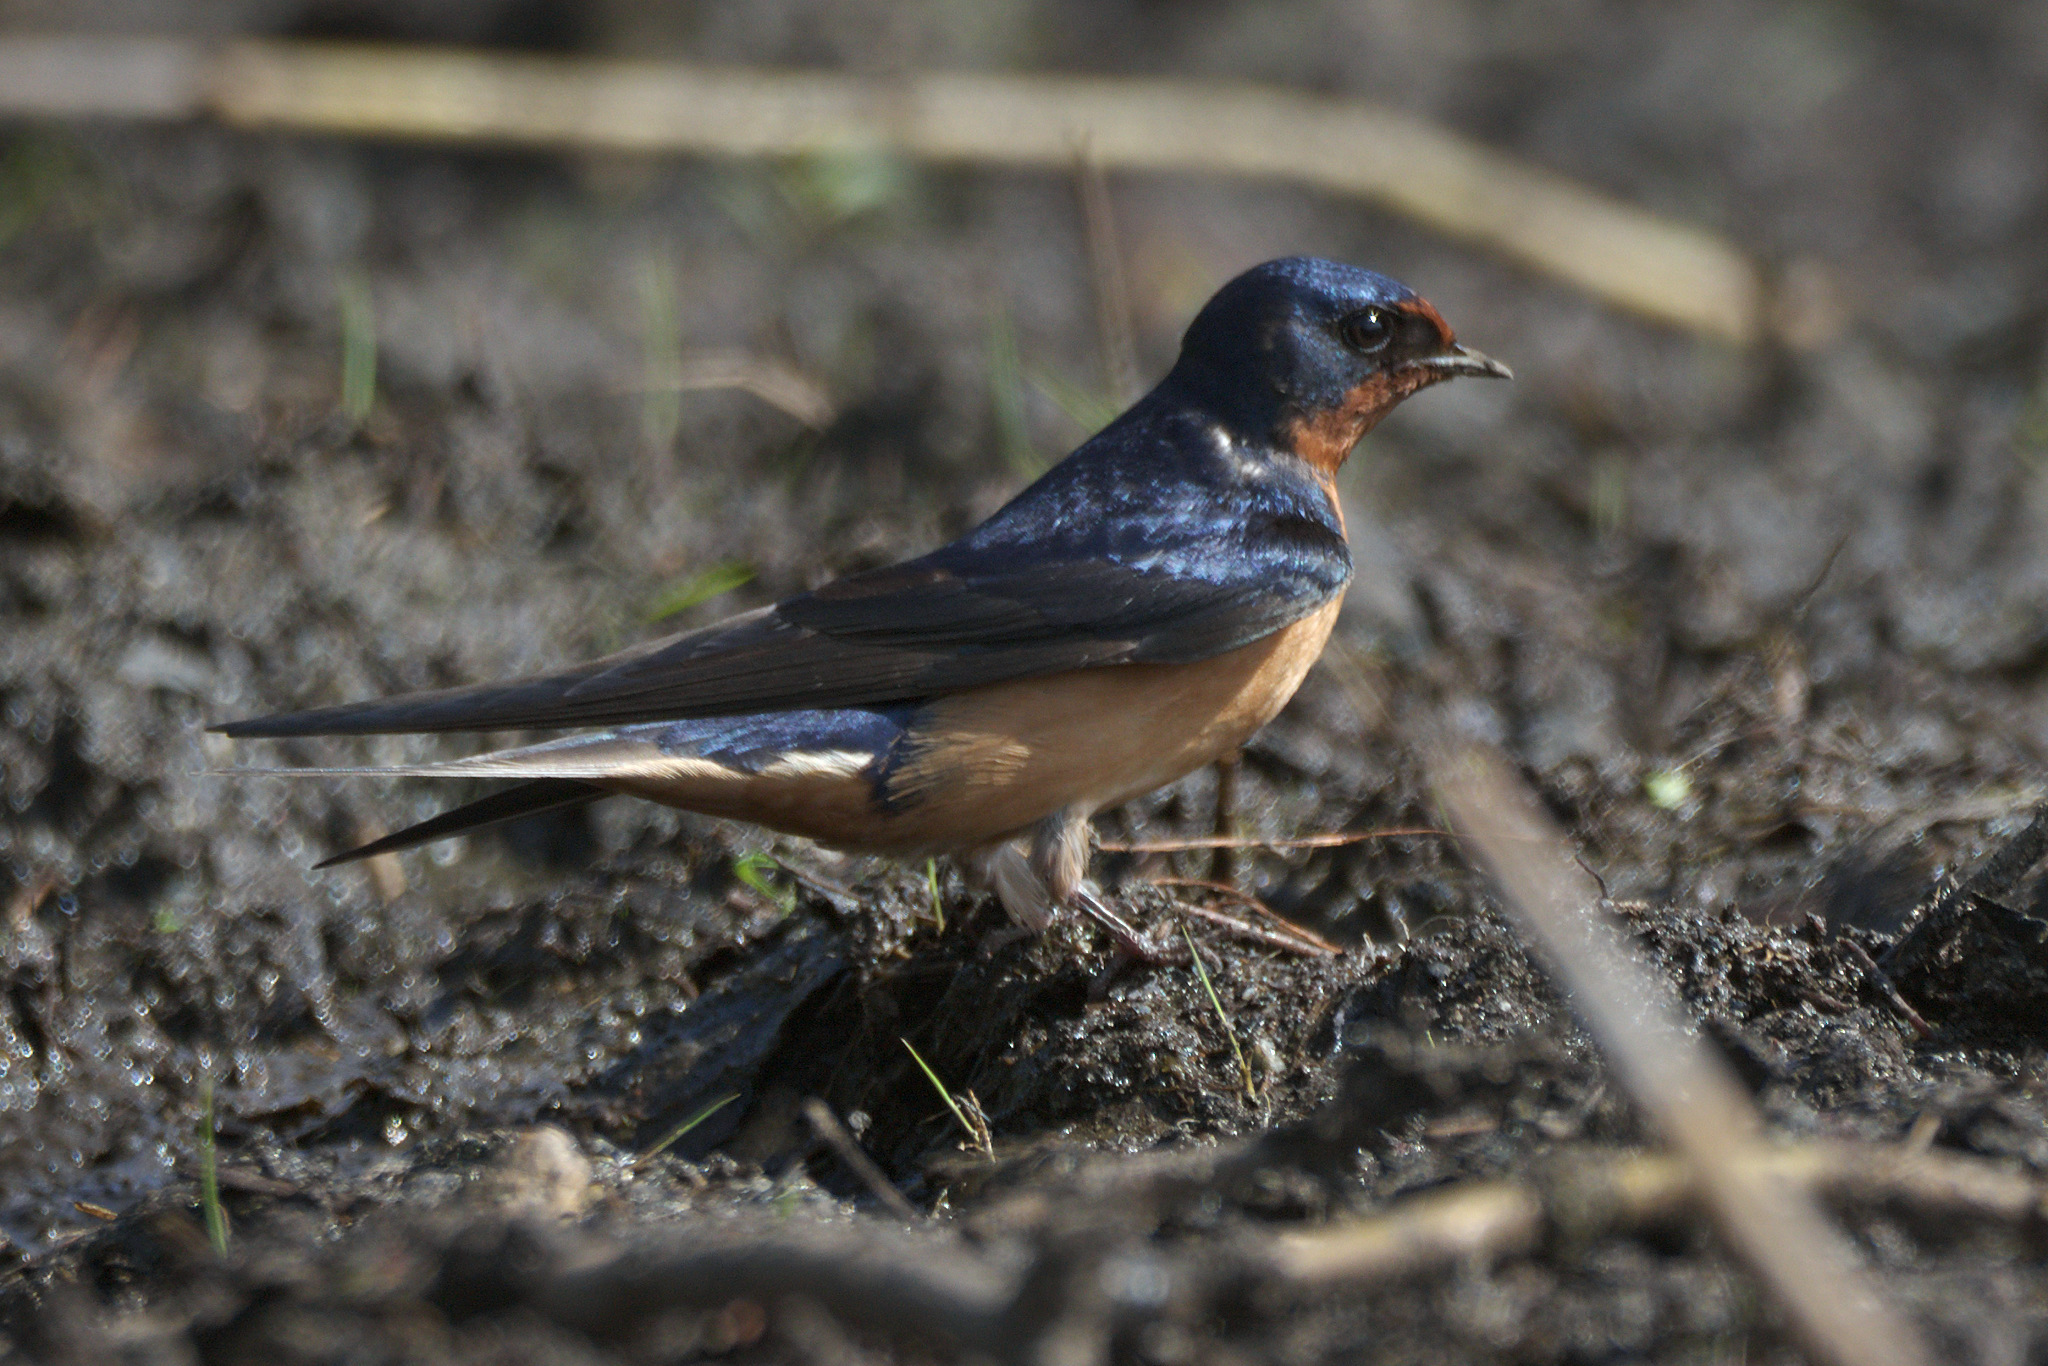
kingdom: Animalia
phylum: Chordata
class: Aves
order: Passeriformes
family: Hirundinidae
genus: Hirundo
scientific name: Hirundo rustica
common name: Barn swallow
